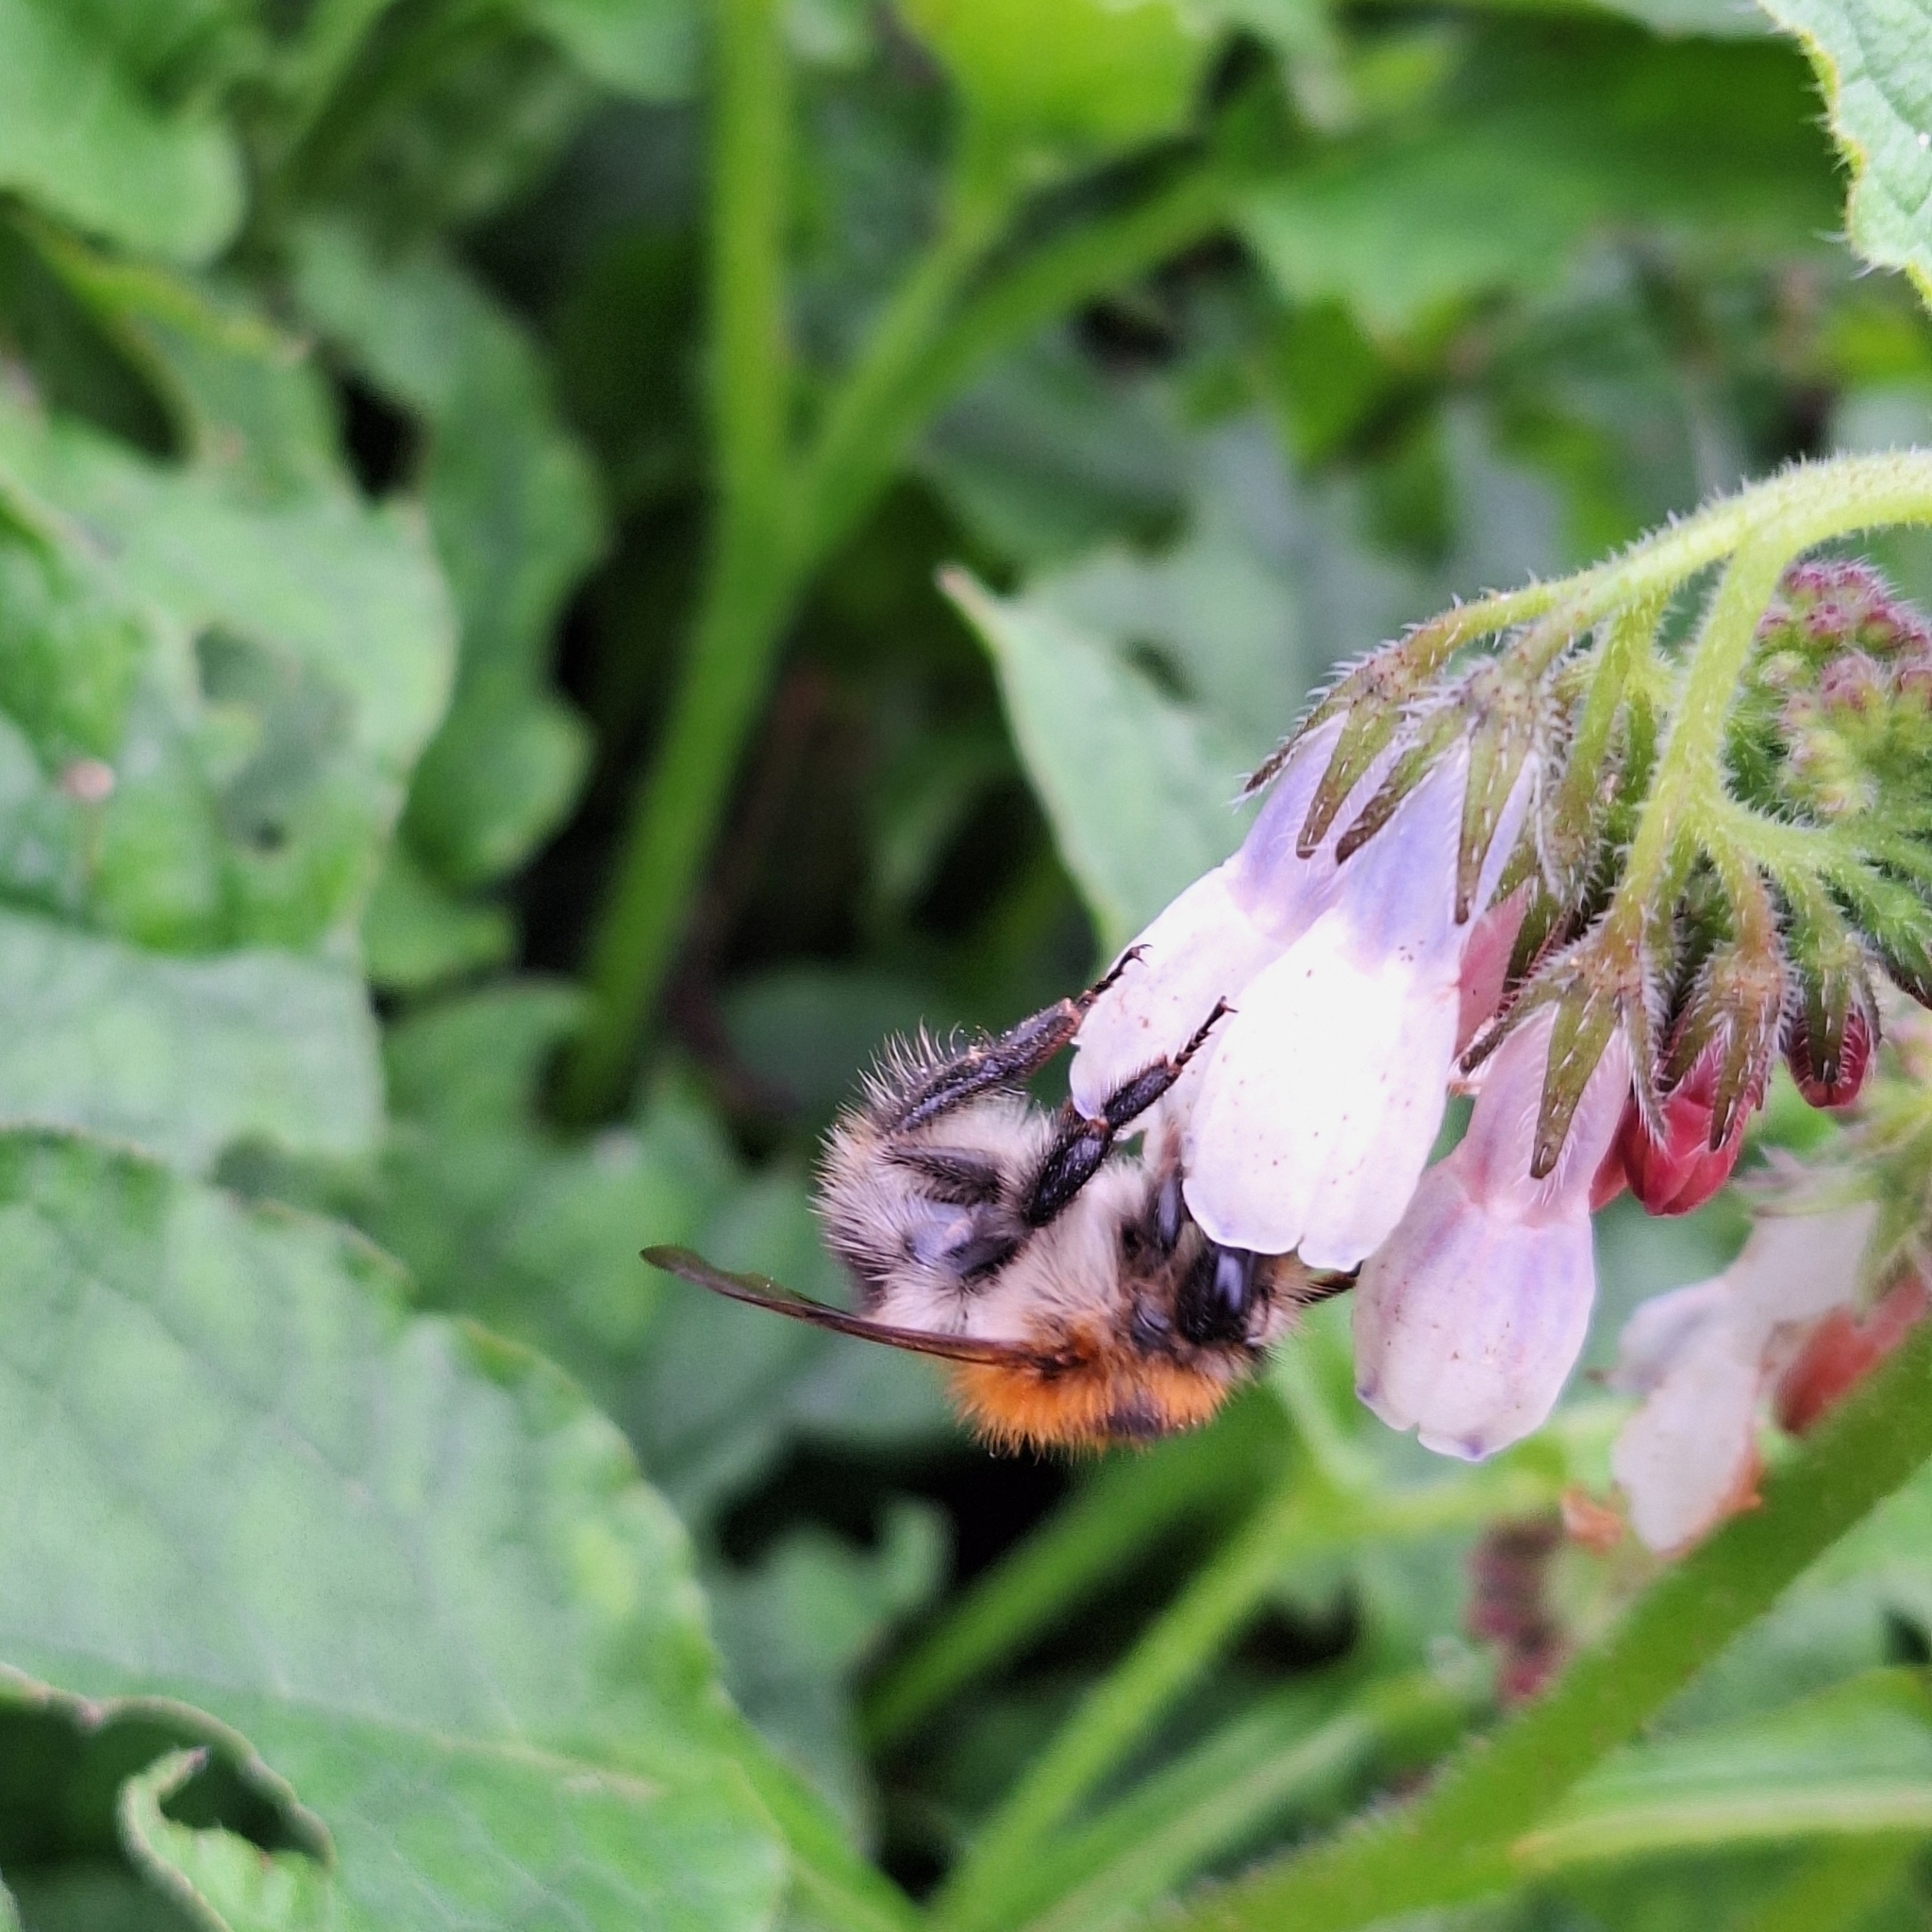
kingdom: Animalia
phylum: Arthropoda
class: Insecta
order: Hymenoptera
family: Apidae
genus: Bombus
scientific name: Bombus pascuorum
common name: Common carder bee
